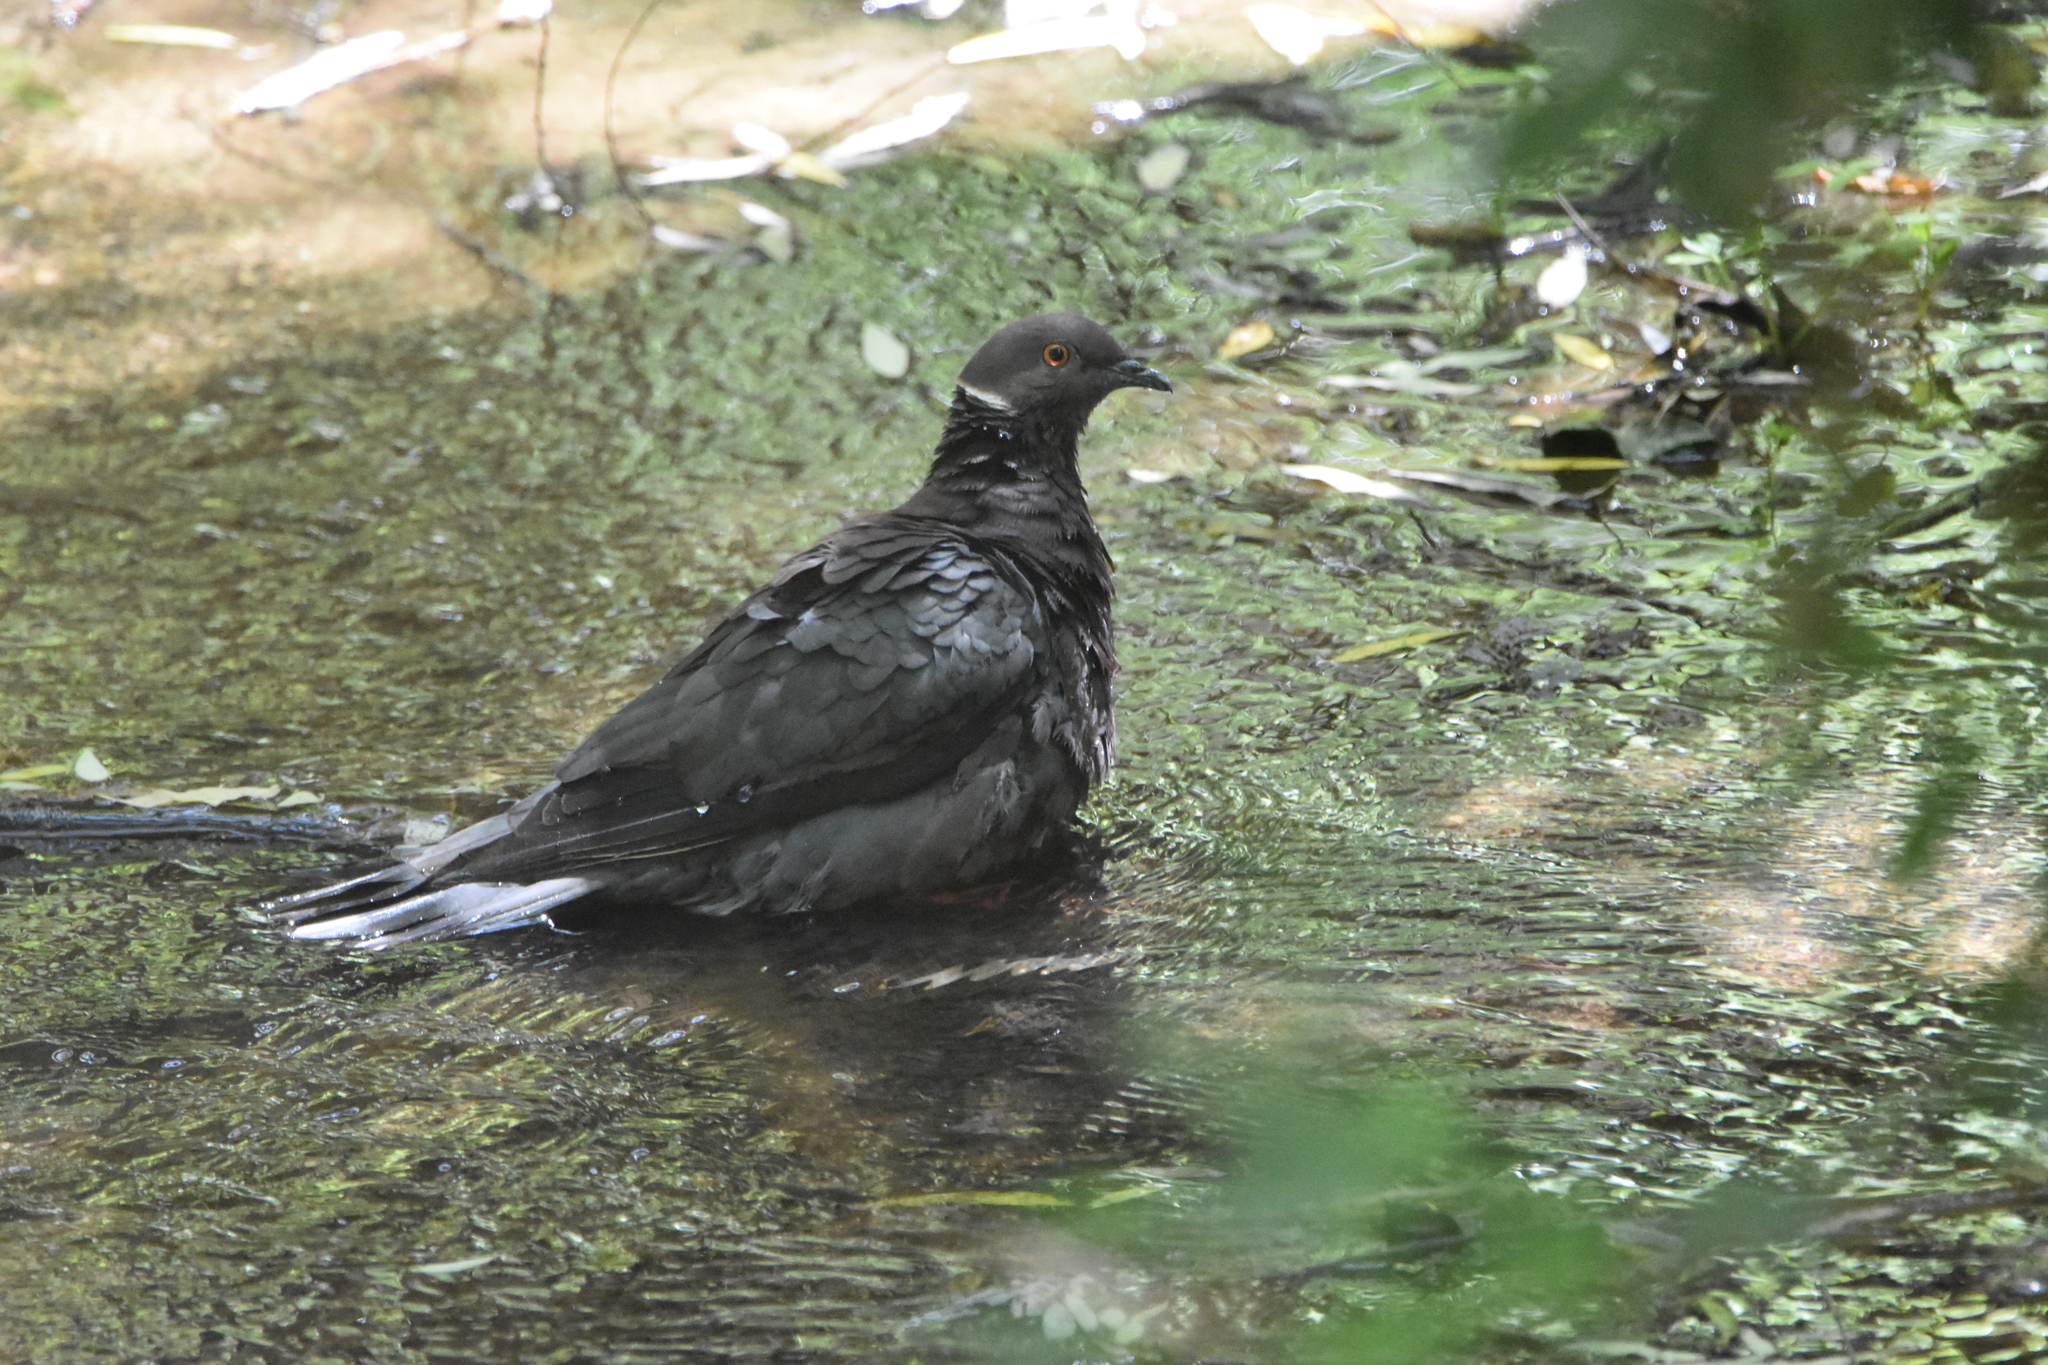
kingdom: Animalia
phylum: Chordata
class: Aves
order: Columbiformes
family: Columbidae
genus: Patagioenas
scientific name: Patagioenas araucana
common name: Chilean pigeon
